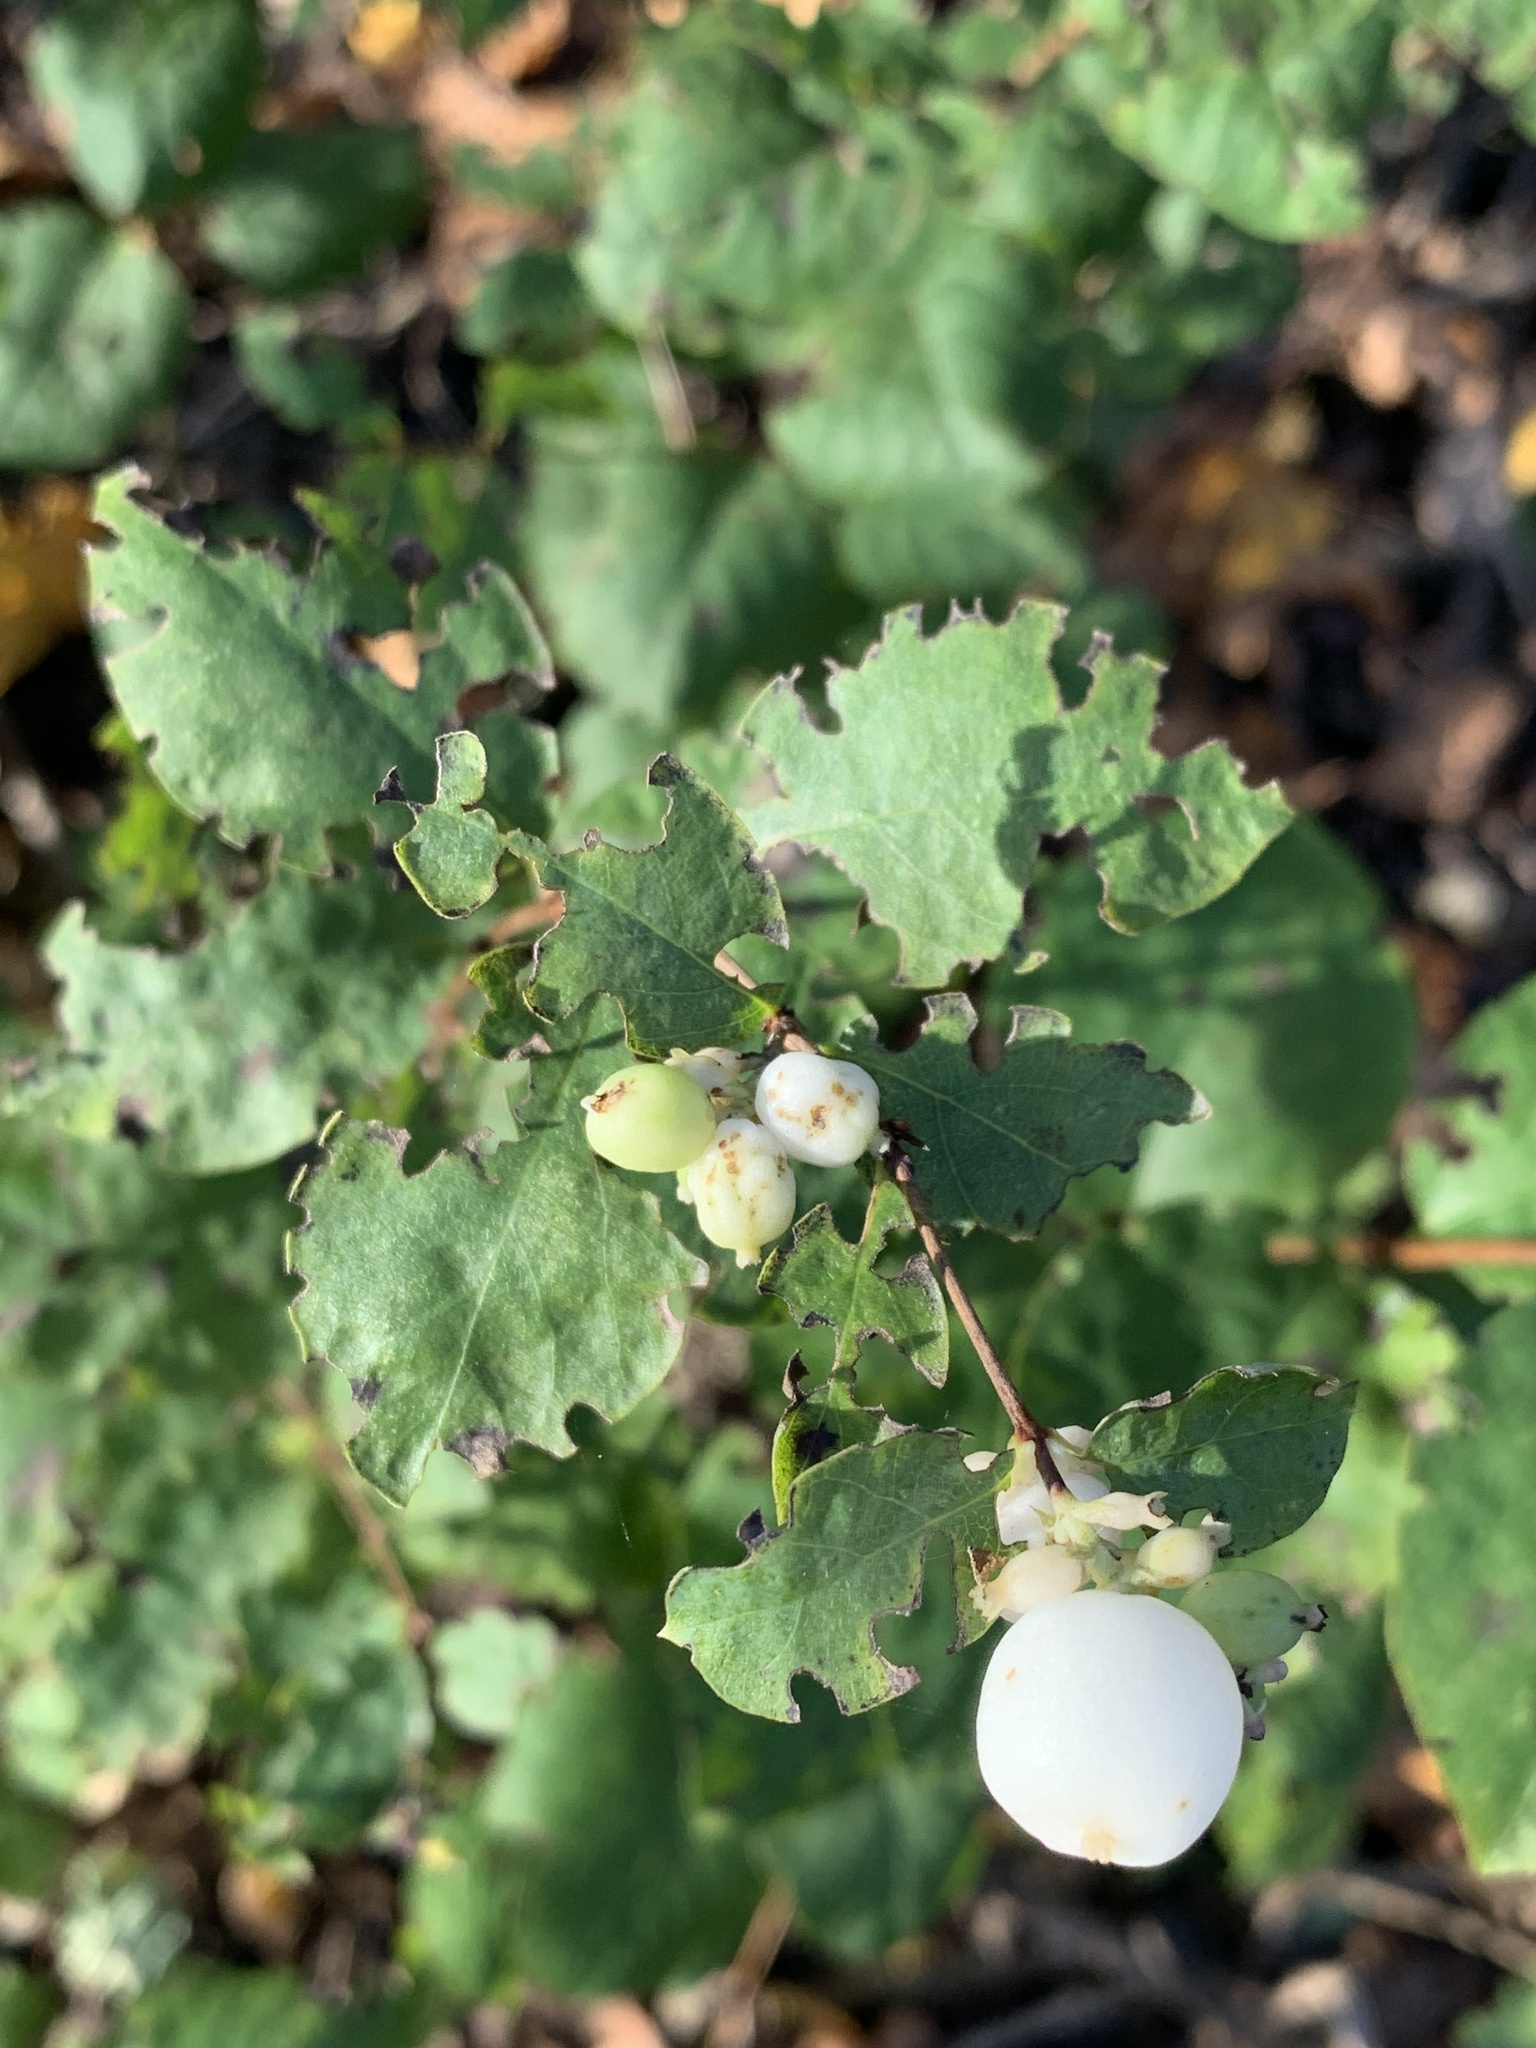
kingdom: Plantae
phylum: Tracheophyta
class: Magnoliopsida
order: Dipsacales
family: Caprifoliaceae
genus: Symphoricarpos
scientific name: Symphoricarpos albus
